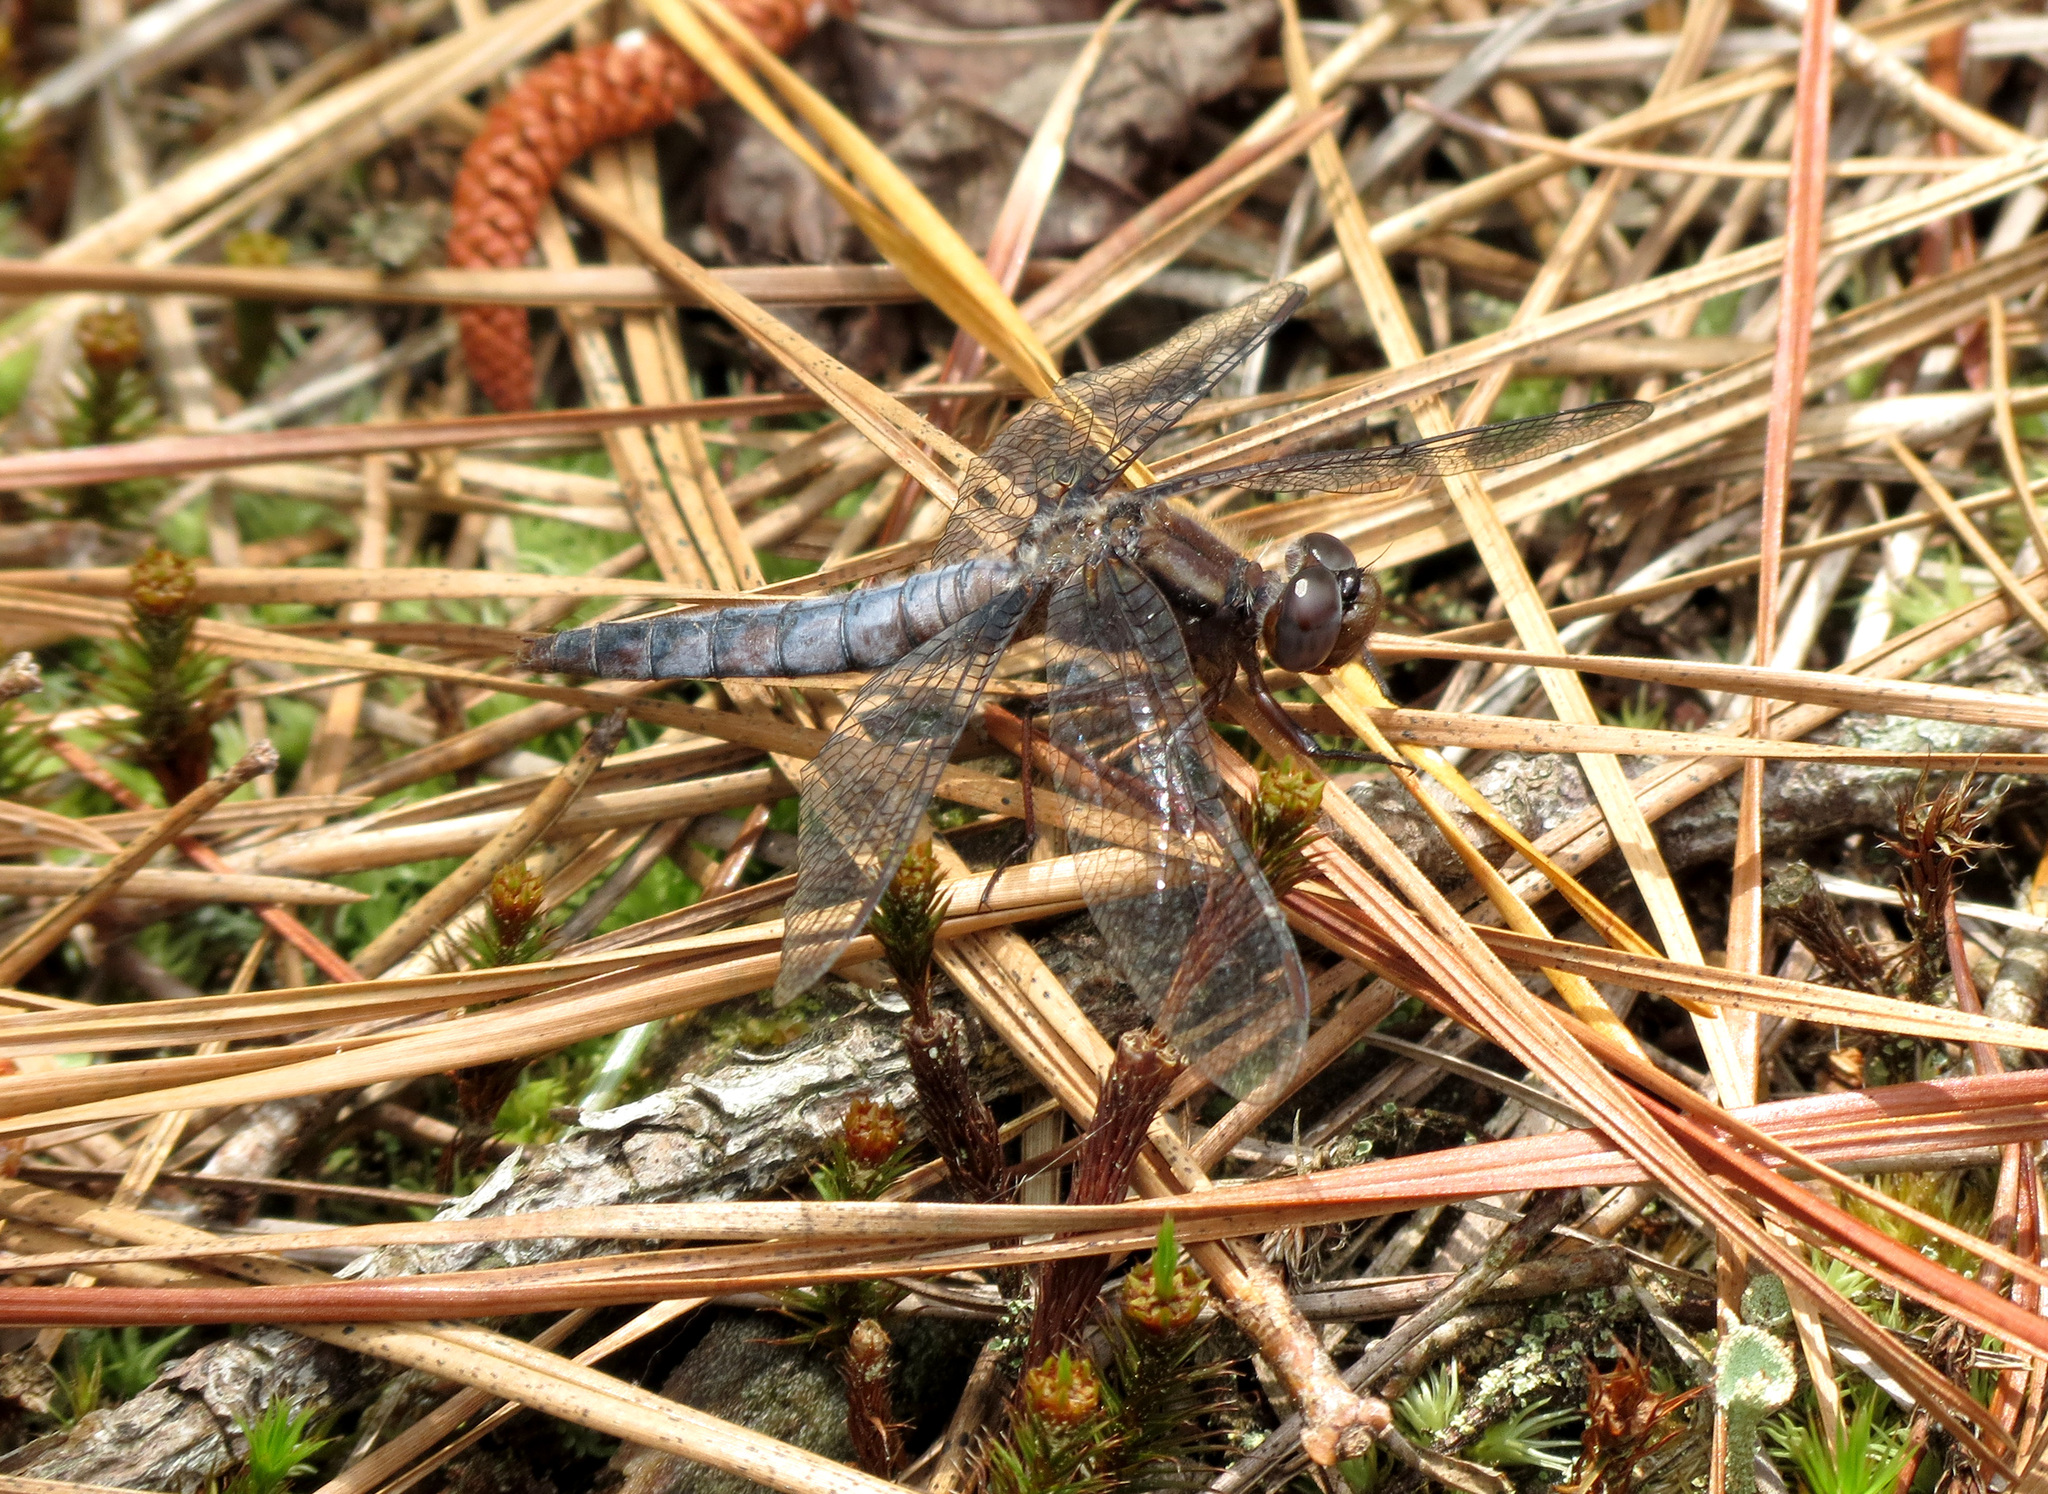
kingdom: Animalia
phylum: Arthropoda
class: Insecta
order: Odonata
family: Libellulidae
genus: Ladona
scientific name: Ladona deplanata
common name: Blue corporal
